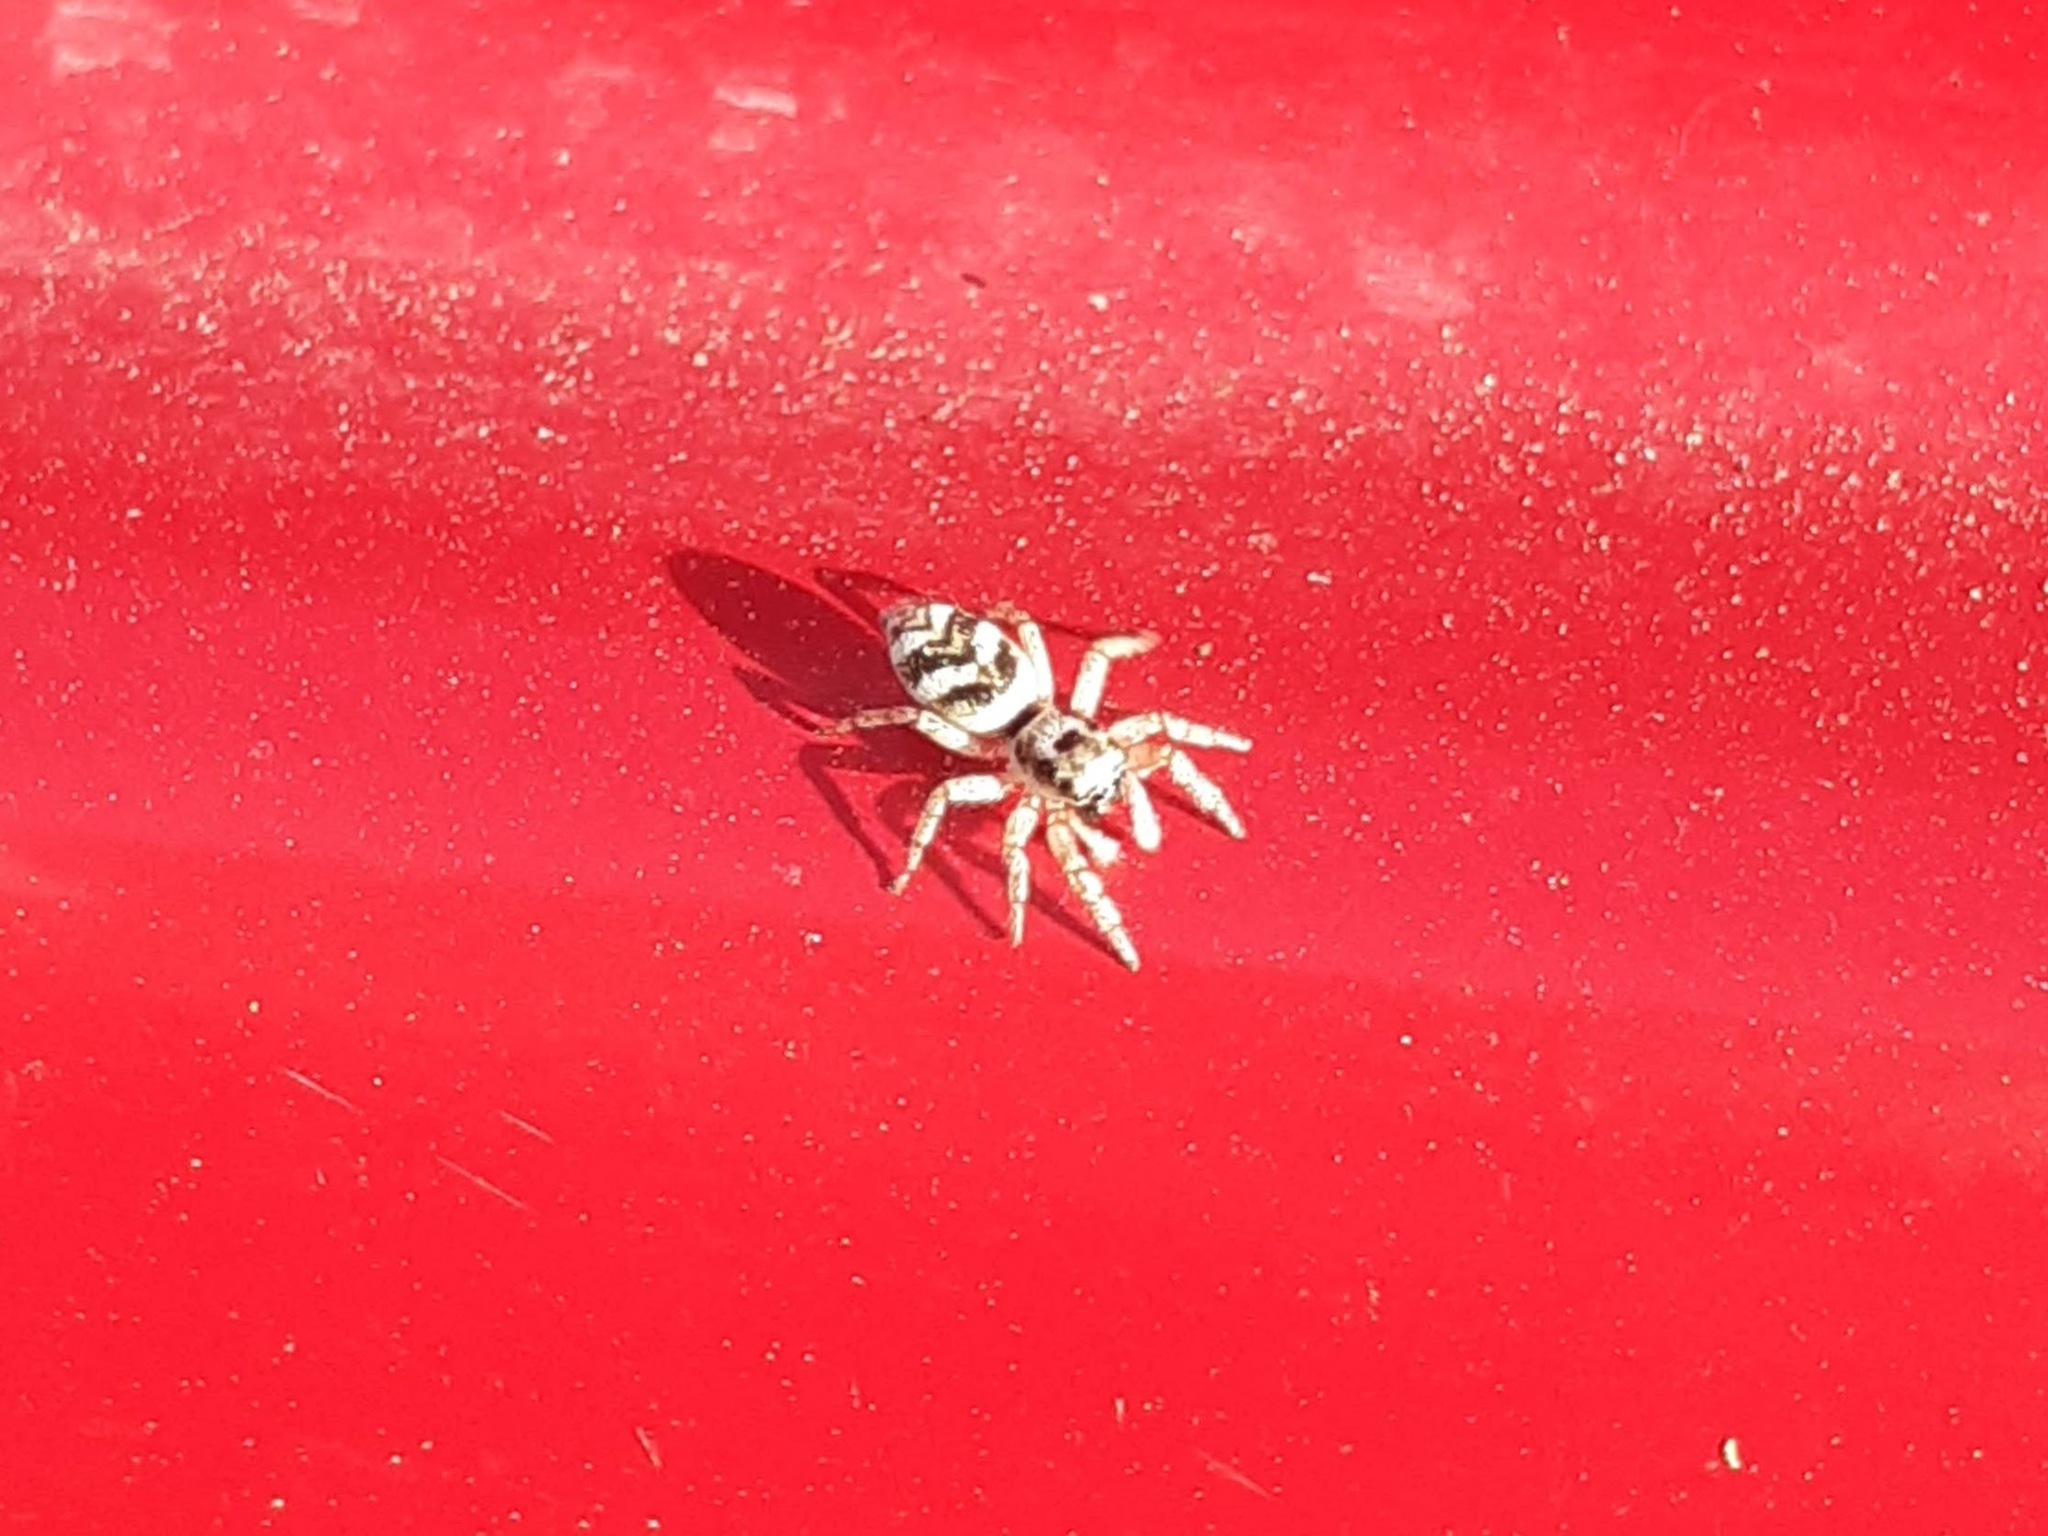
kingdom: Animalia
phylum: Arthropoda
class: Arachnida
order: Araneae
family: Salticidae
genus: Salticus
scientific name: Salticus scenicus
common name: Zebra jumper
